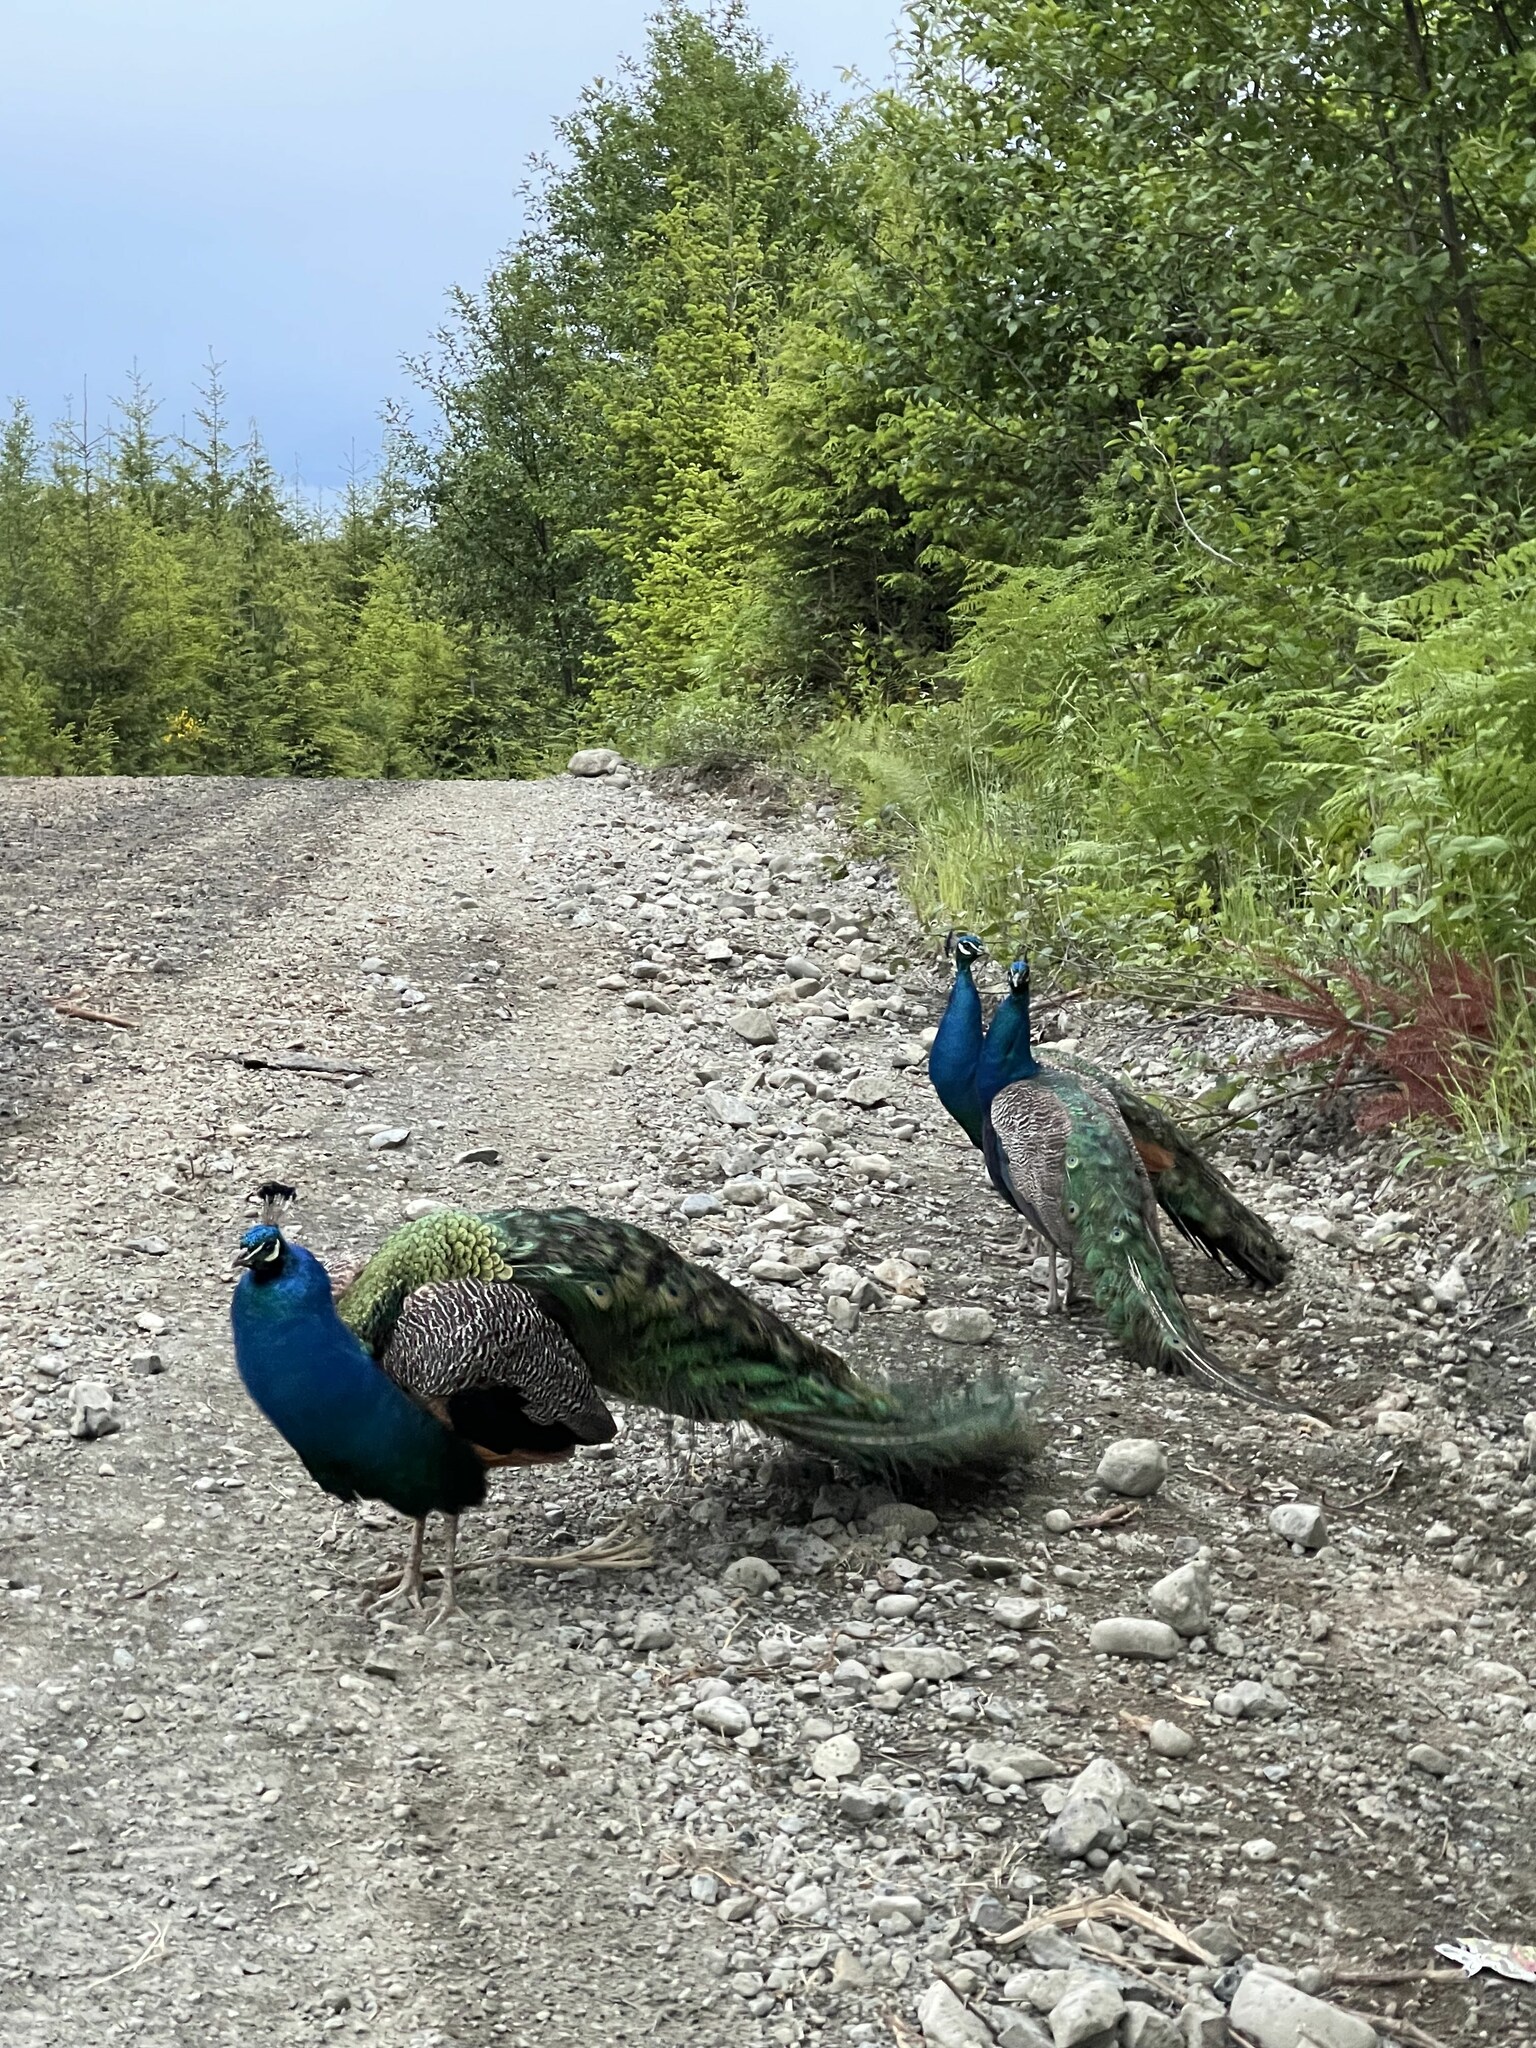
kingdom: Animalia
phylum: Chordata
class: Aves
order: Galliformes
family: Phasianidae
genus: Pavo
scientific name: Pavo cristatus
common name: Indian peafowl
